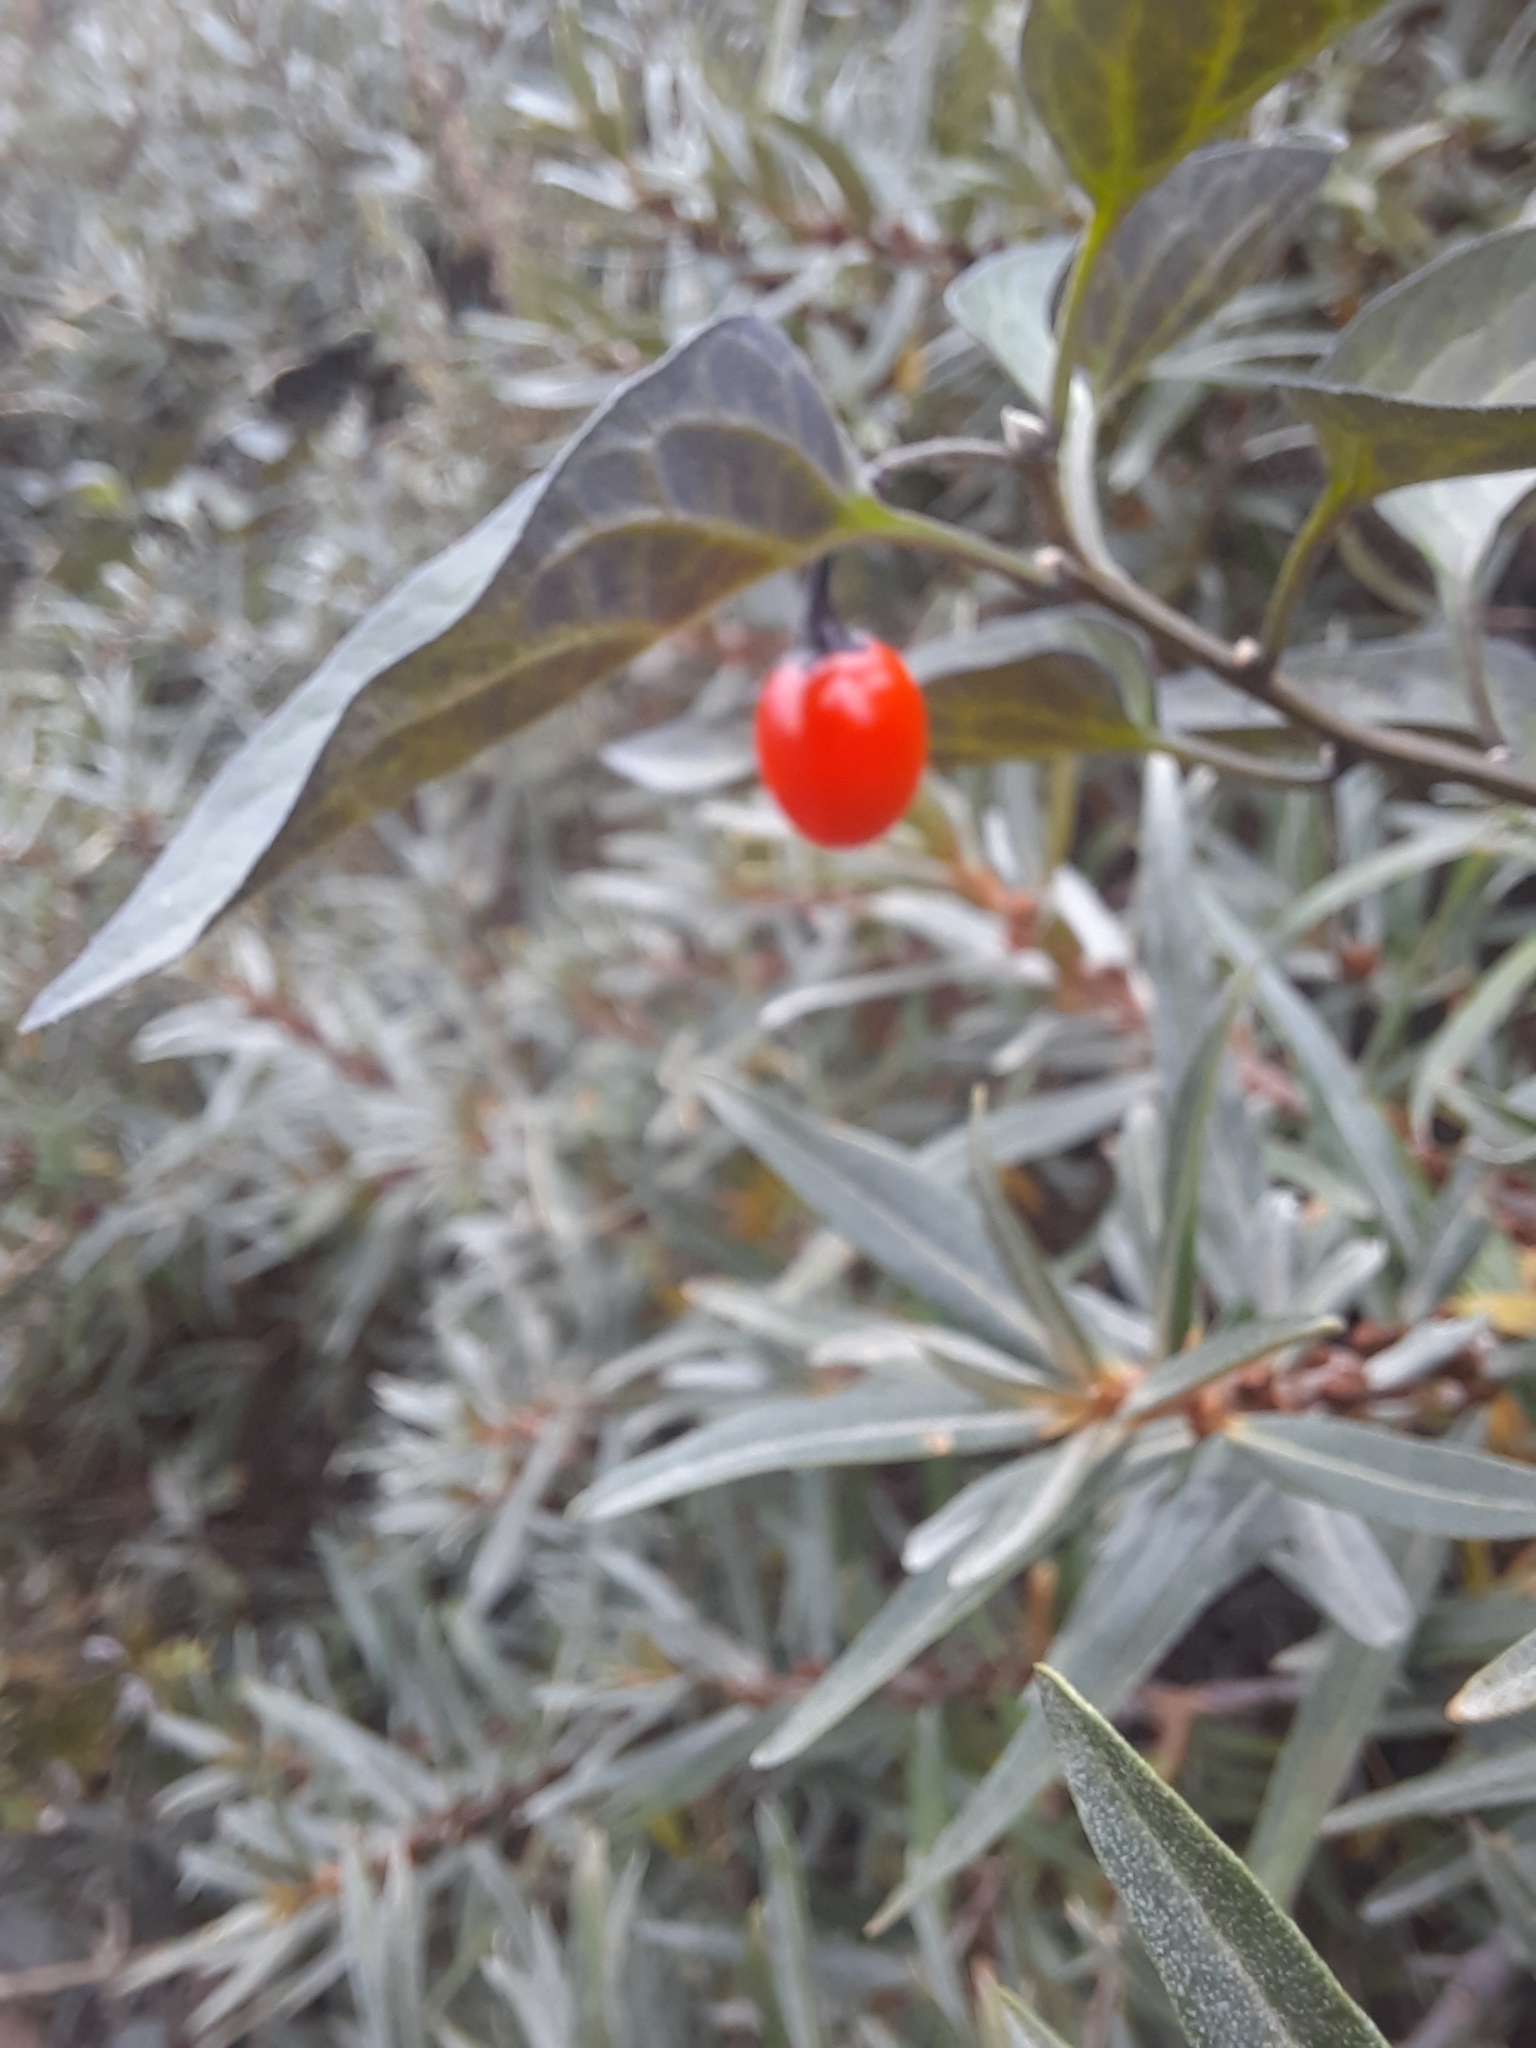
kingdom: Plantae
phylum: Tracheophyta
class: Magnoliopsida
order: Rosales
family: Elaeagnaceae
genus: Hippophae
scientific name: Hippophae rhamnoides
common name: Sea-buckthorn
